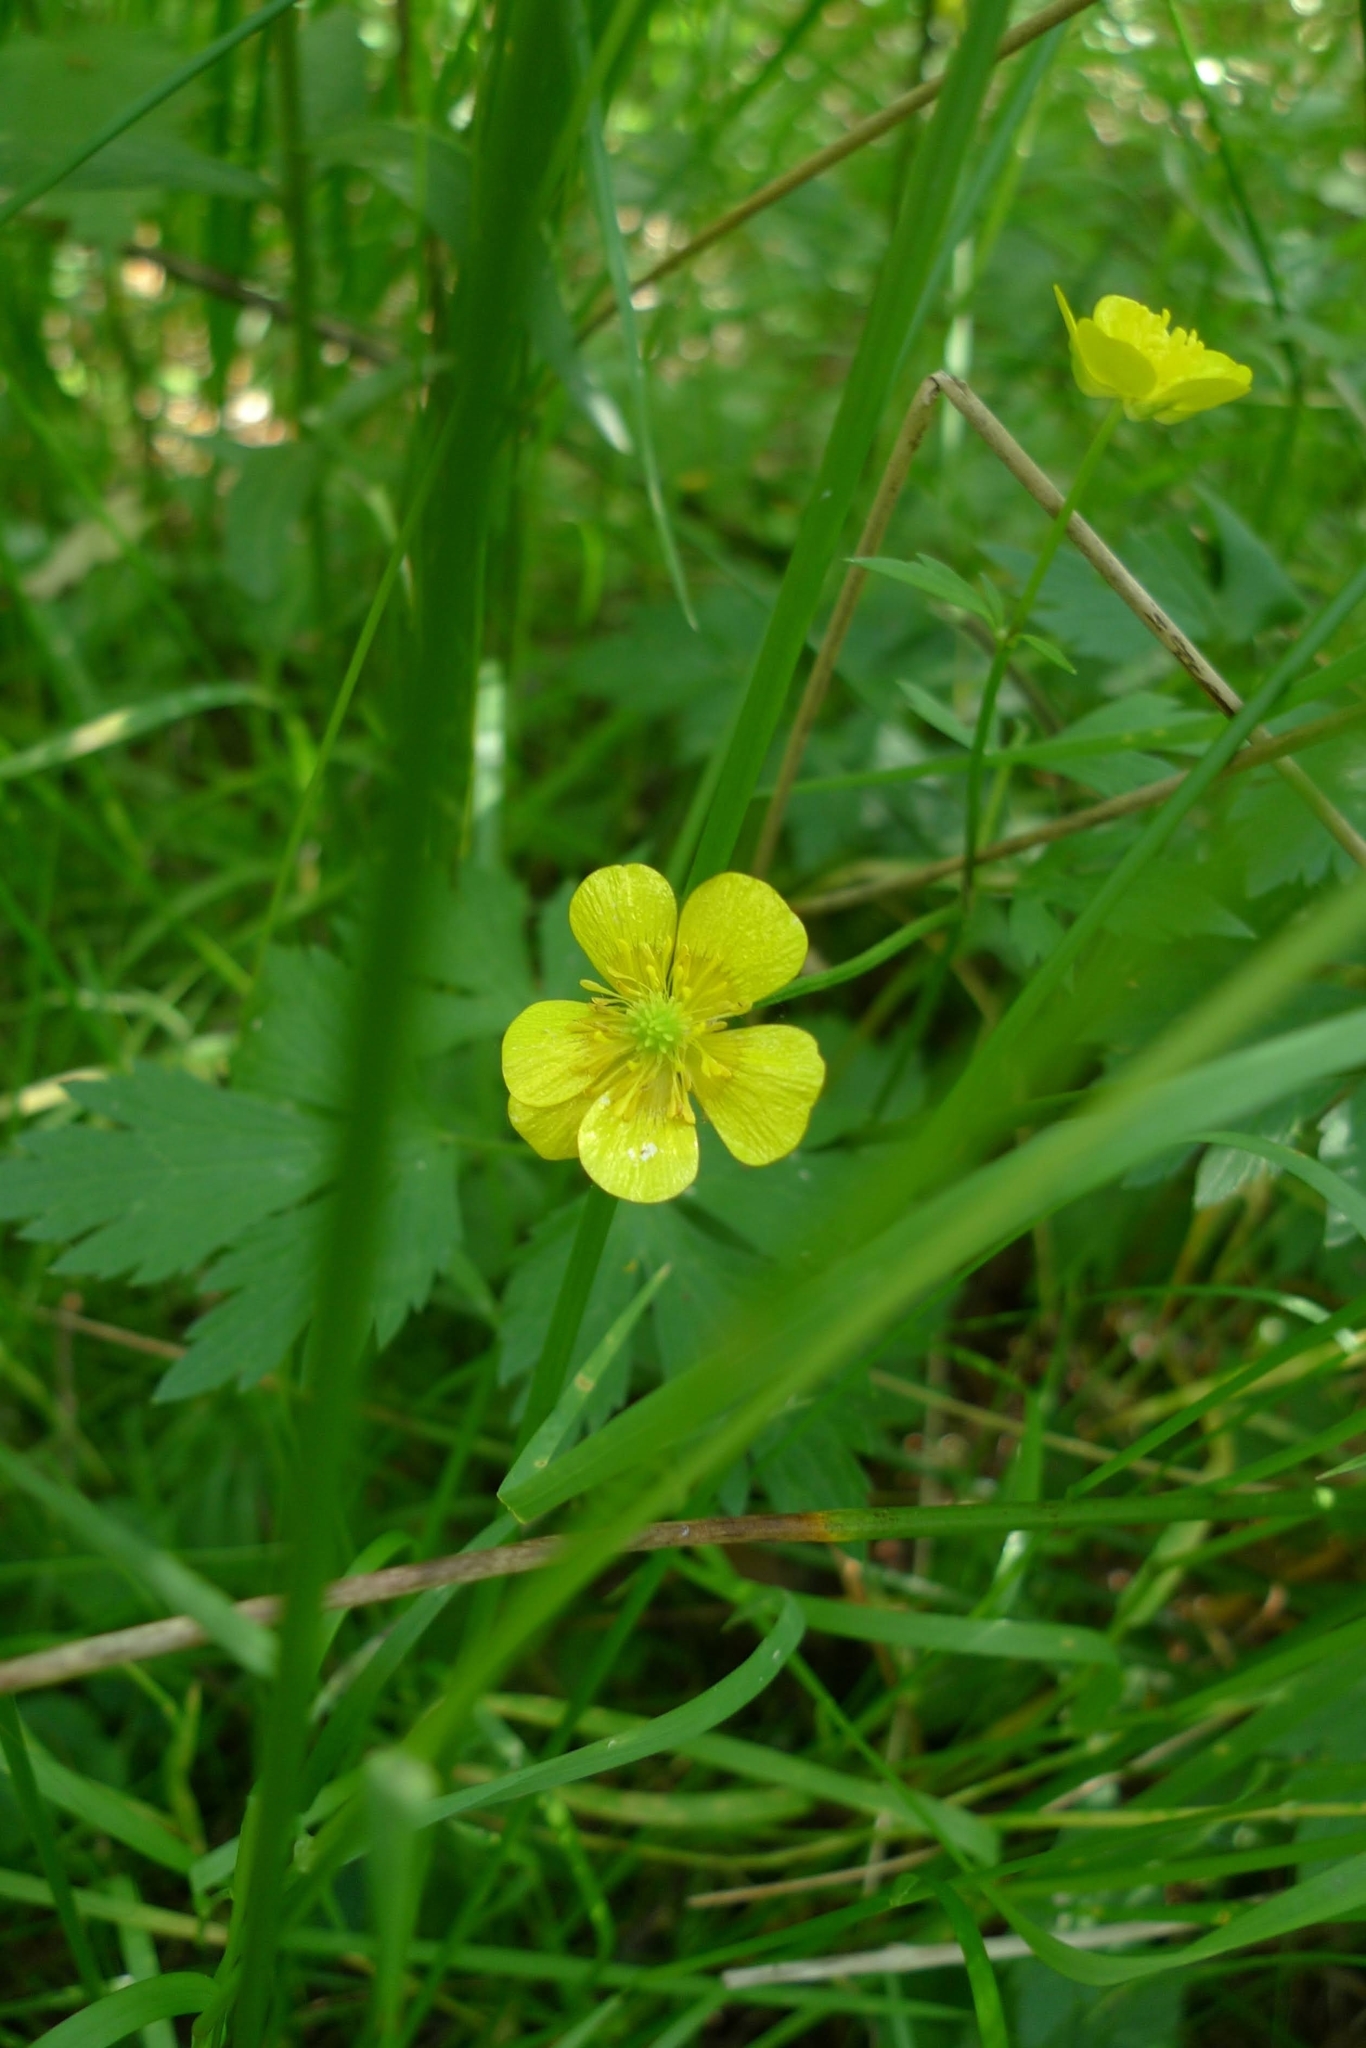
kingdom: Plantae
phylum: Tracheophyta
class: Magnoliopsida
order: Ranunculales
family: Ranunculaceae
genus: Ranunculus
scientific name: Ranunculus repens
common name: Creeping buttercup
